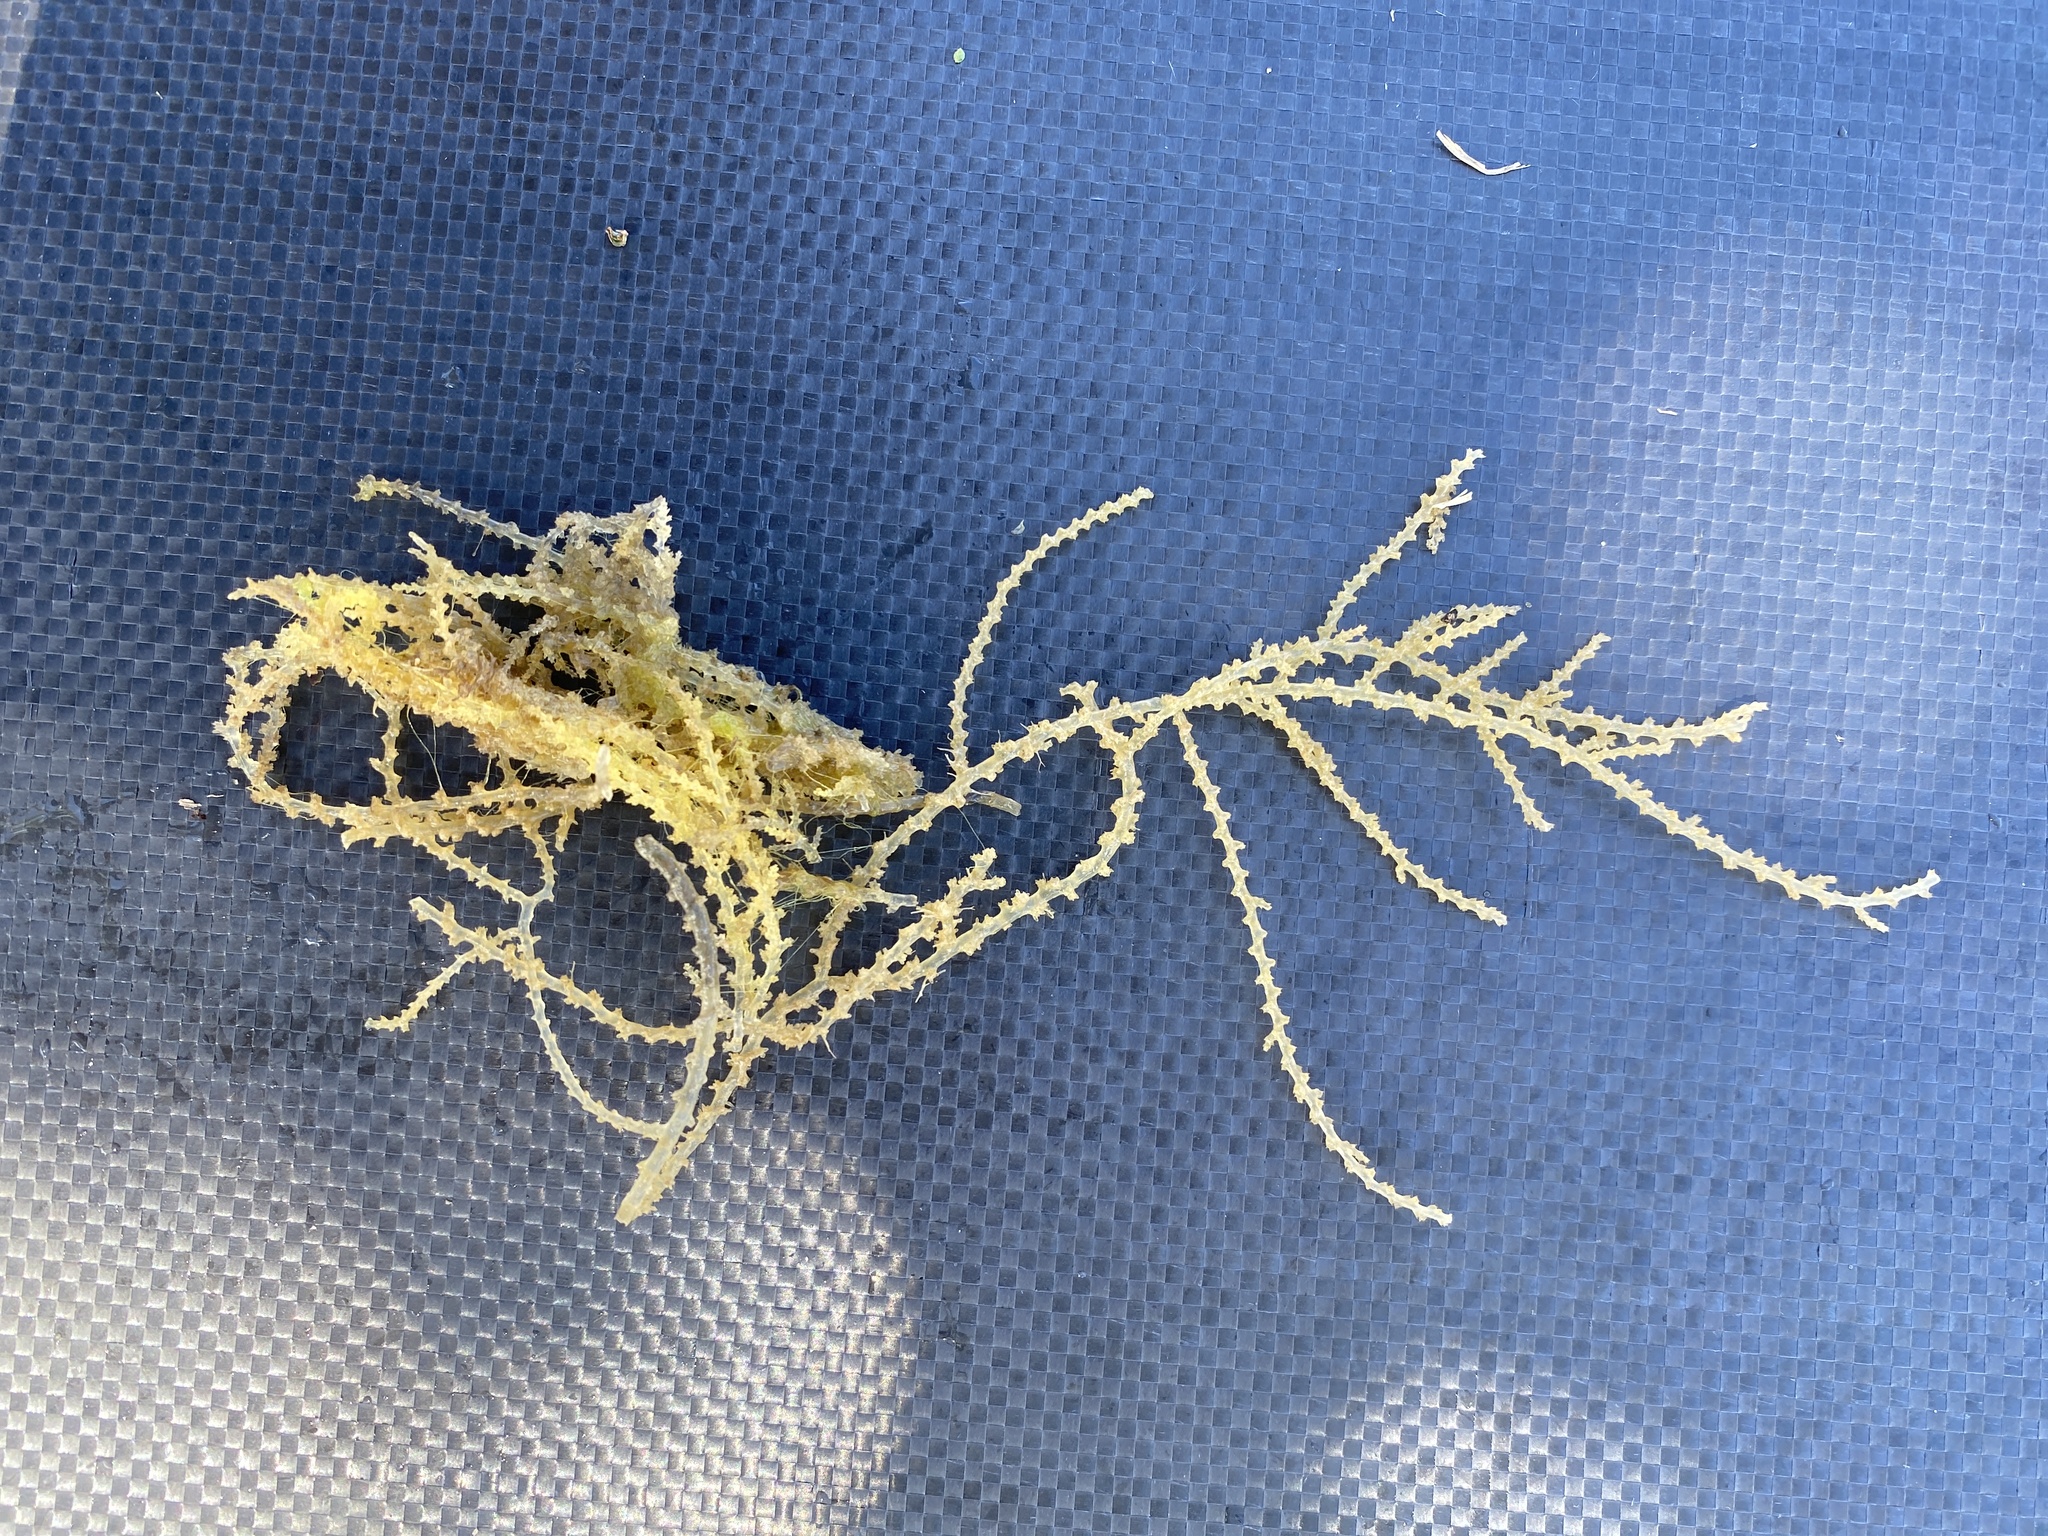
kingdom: Plantae
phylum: Rhodophyta
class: Florideophyceae
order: Ceramiales
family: Rhodomelaceae
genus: Acanthophora
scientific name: Acanthophora spicifera
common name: Red algae
